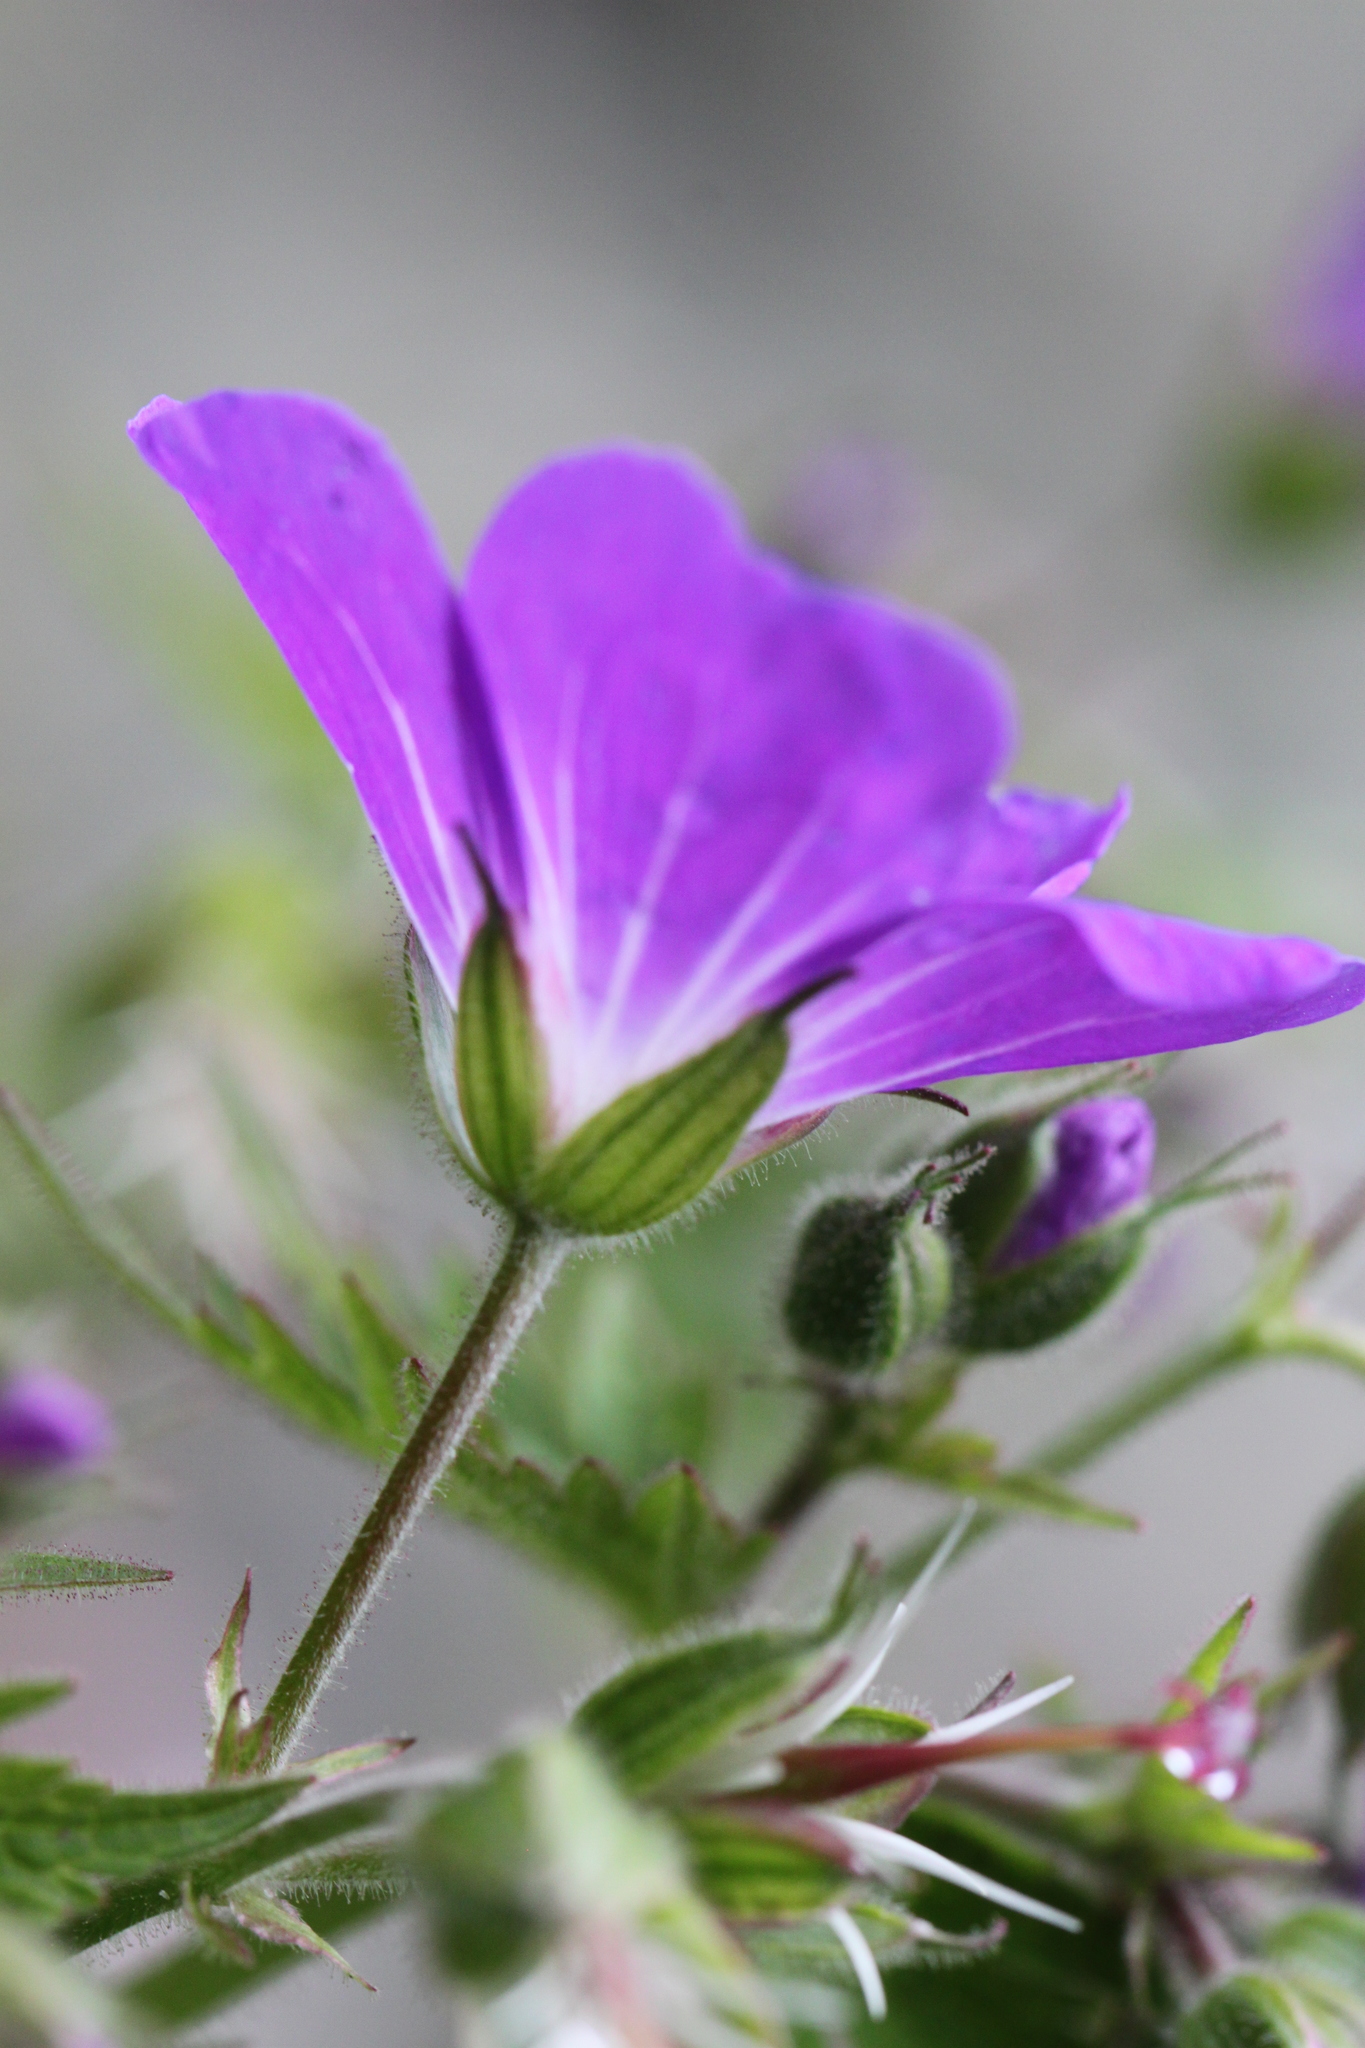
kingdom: Plantae
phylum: Tracheophyta
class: Magnoliopsida
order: Geraniales
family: Geraniaceae
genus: Geranium
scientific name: Geranium sylvaticum
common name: Wood crane's-bill
